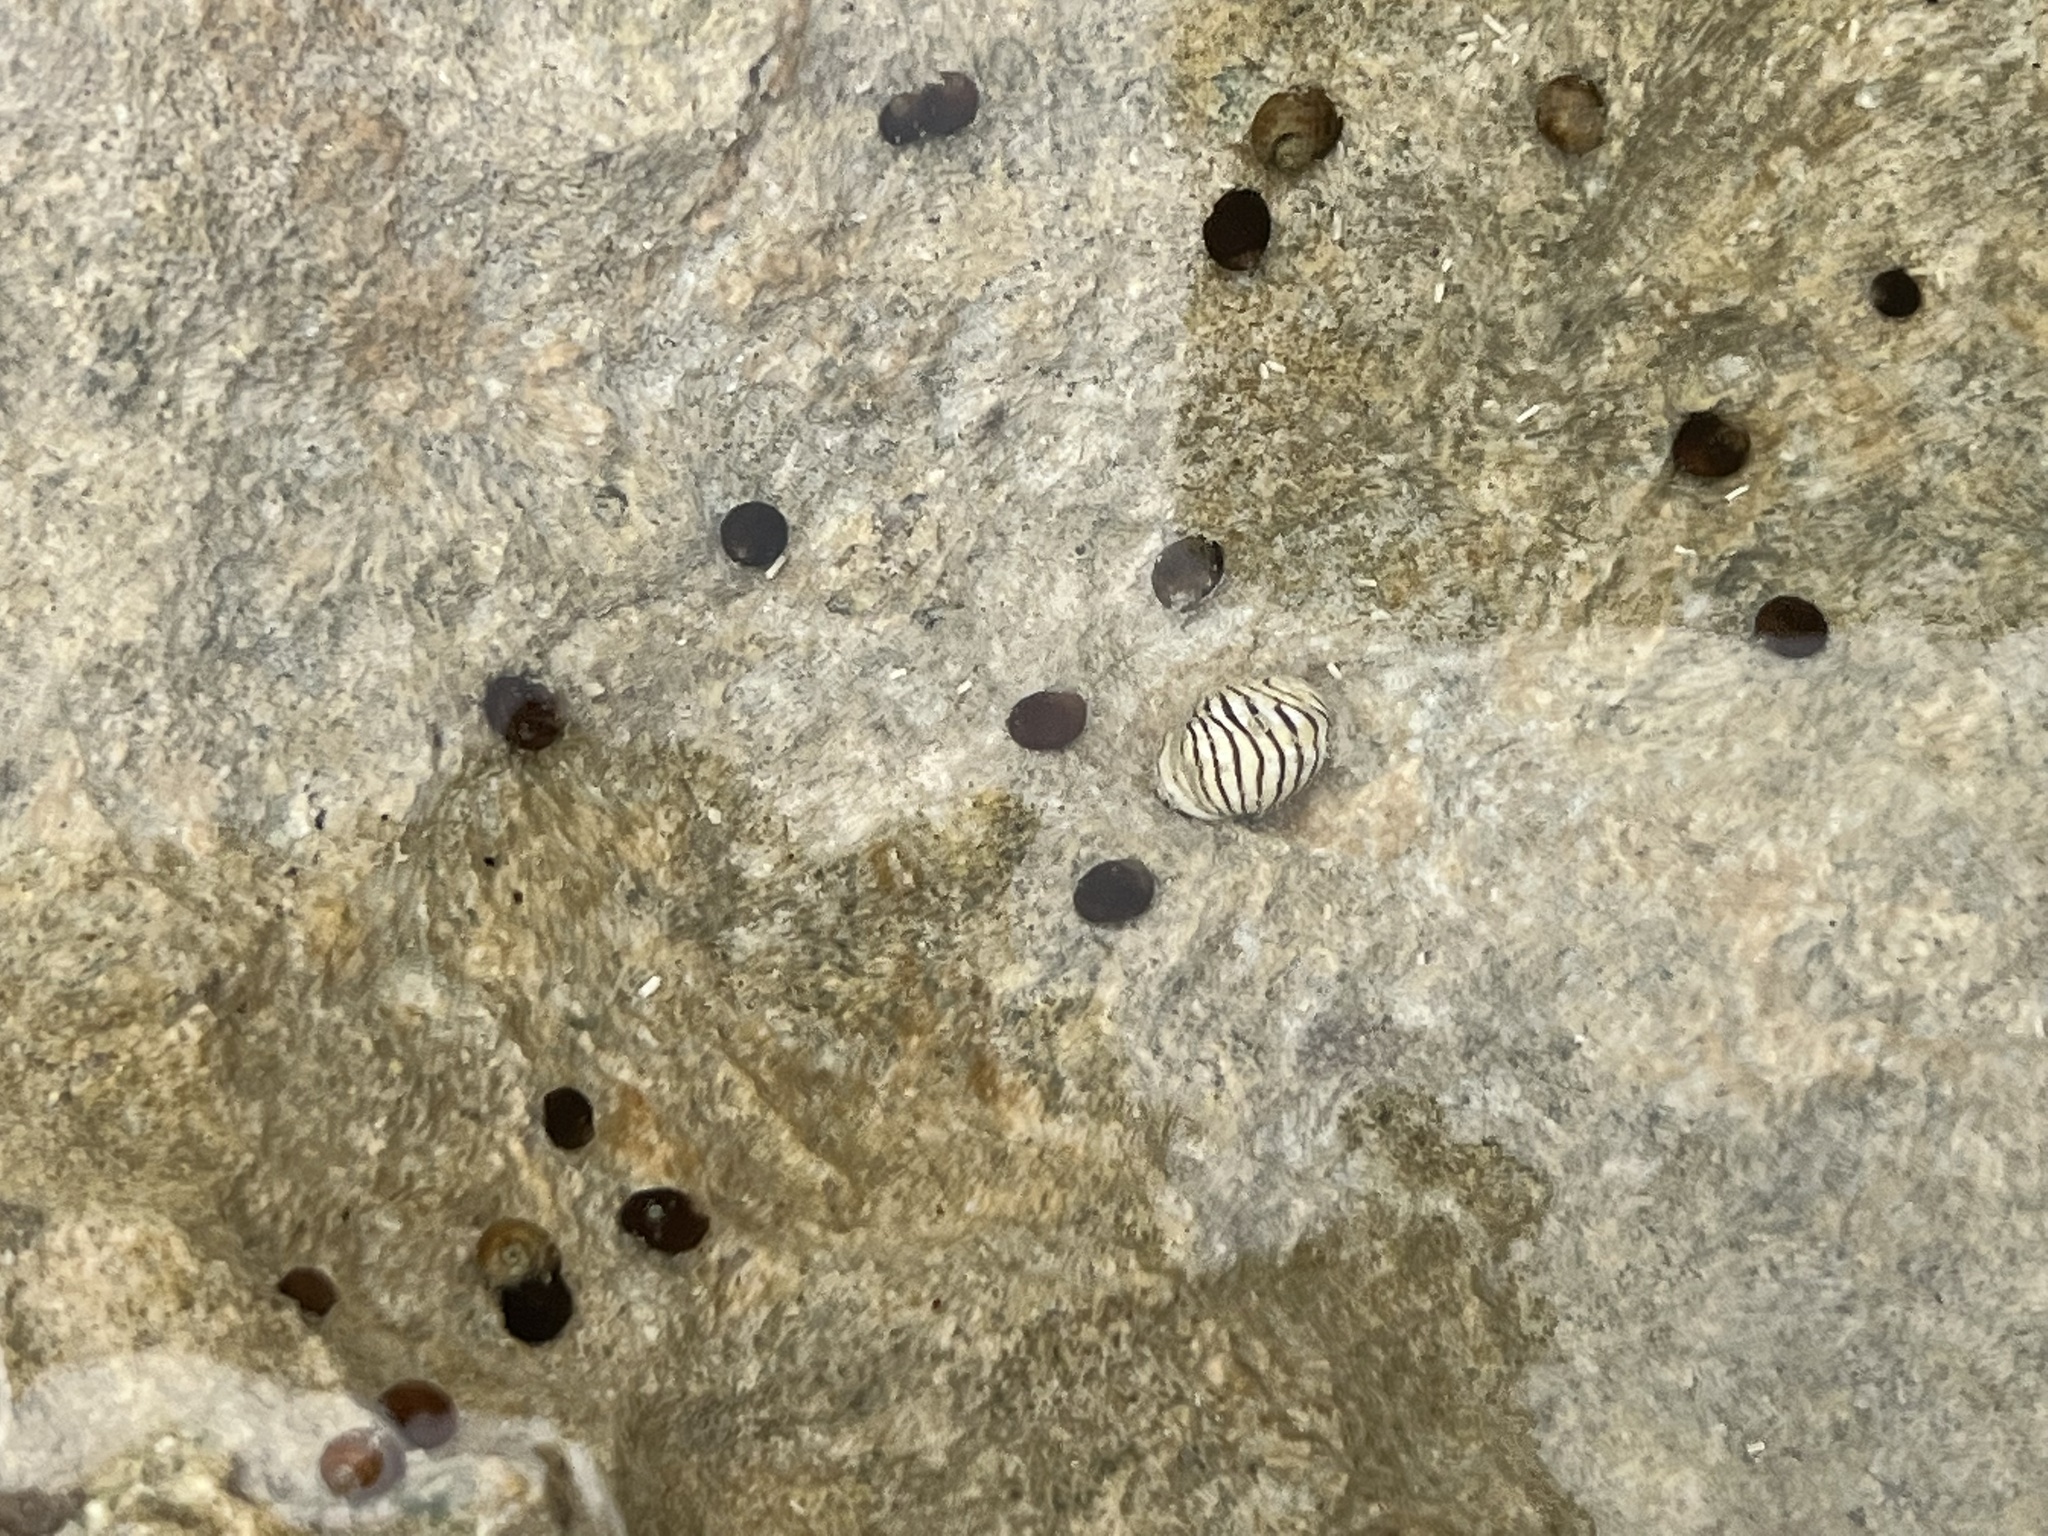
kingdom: Animalia
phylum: Mollusca
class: Gastropoda
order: Cycloneritida
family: Neritidae
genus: Puperita
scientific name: Puperita pupa
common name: Zebra nerite
